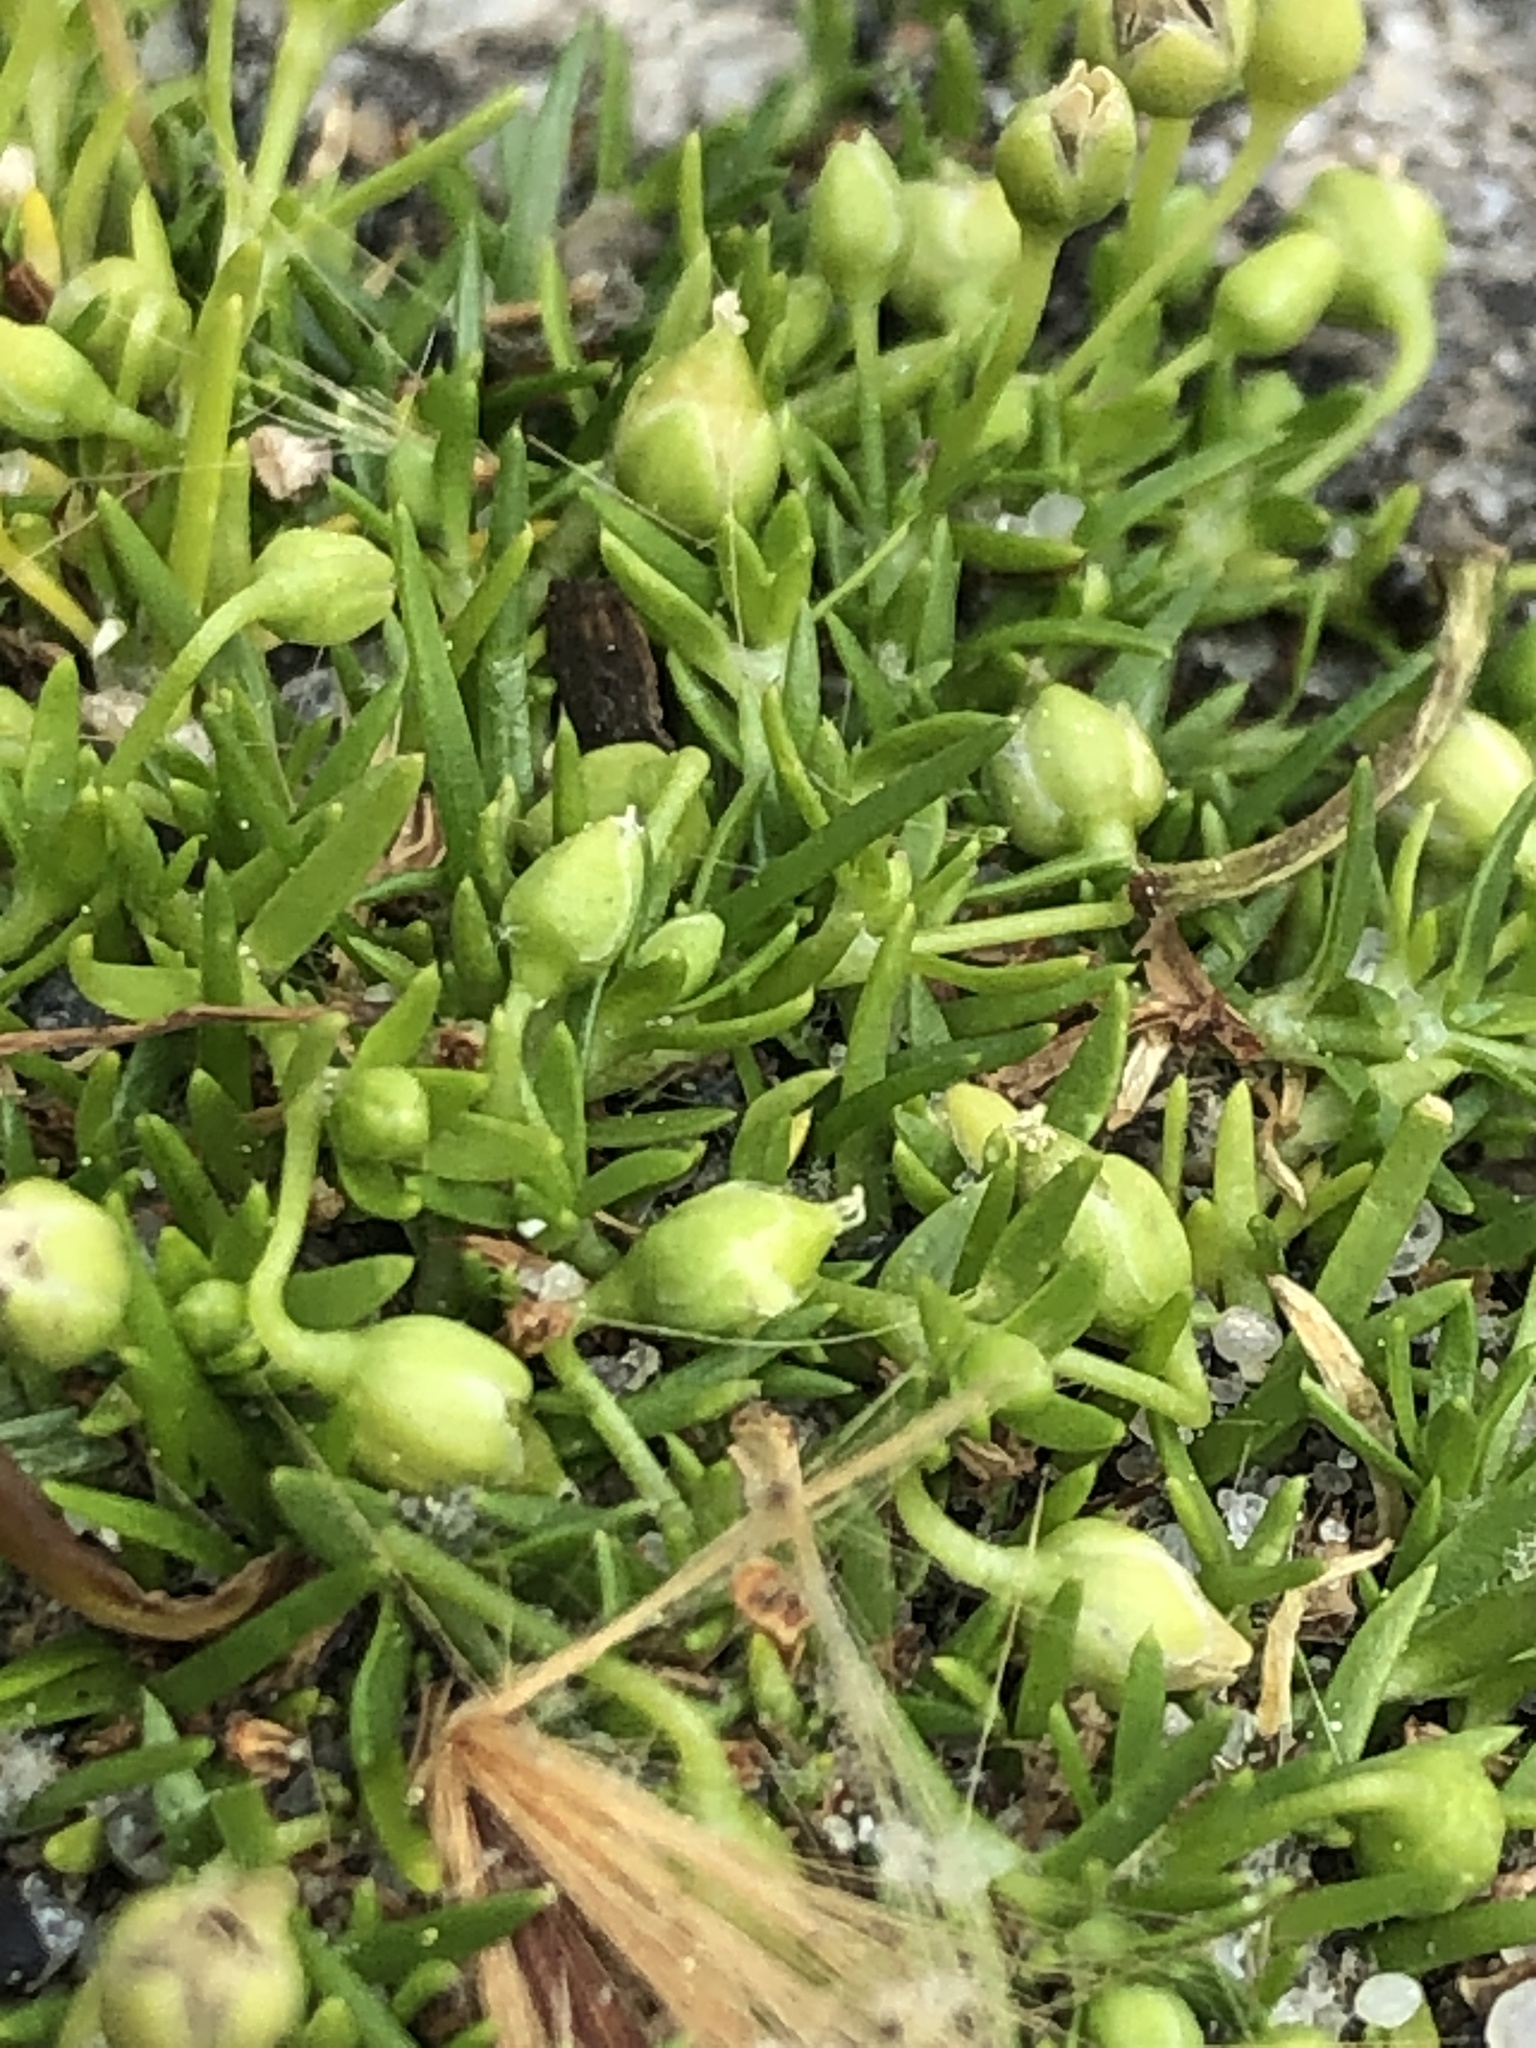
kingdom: Plantae
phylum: Tracheophyta
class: Magnoliopsida
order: Caryophyllales
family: Caryophyllaceae
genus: Sagina
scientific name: Sagina procumbens
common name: Procumbent pearlwort
